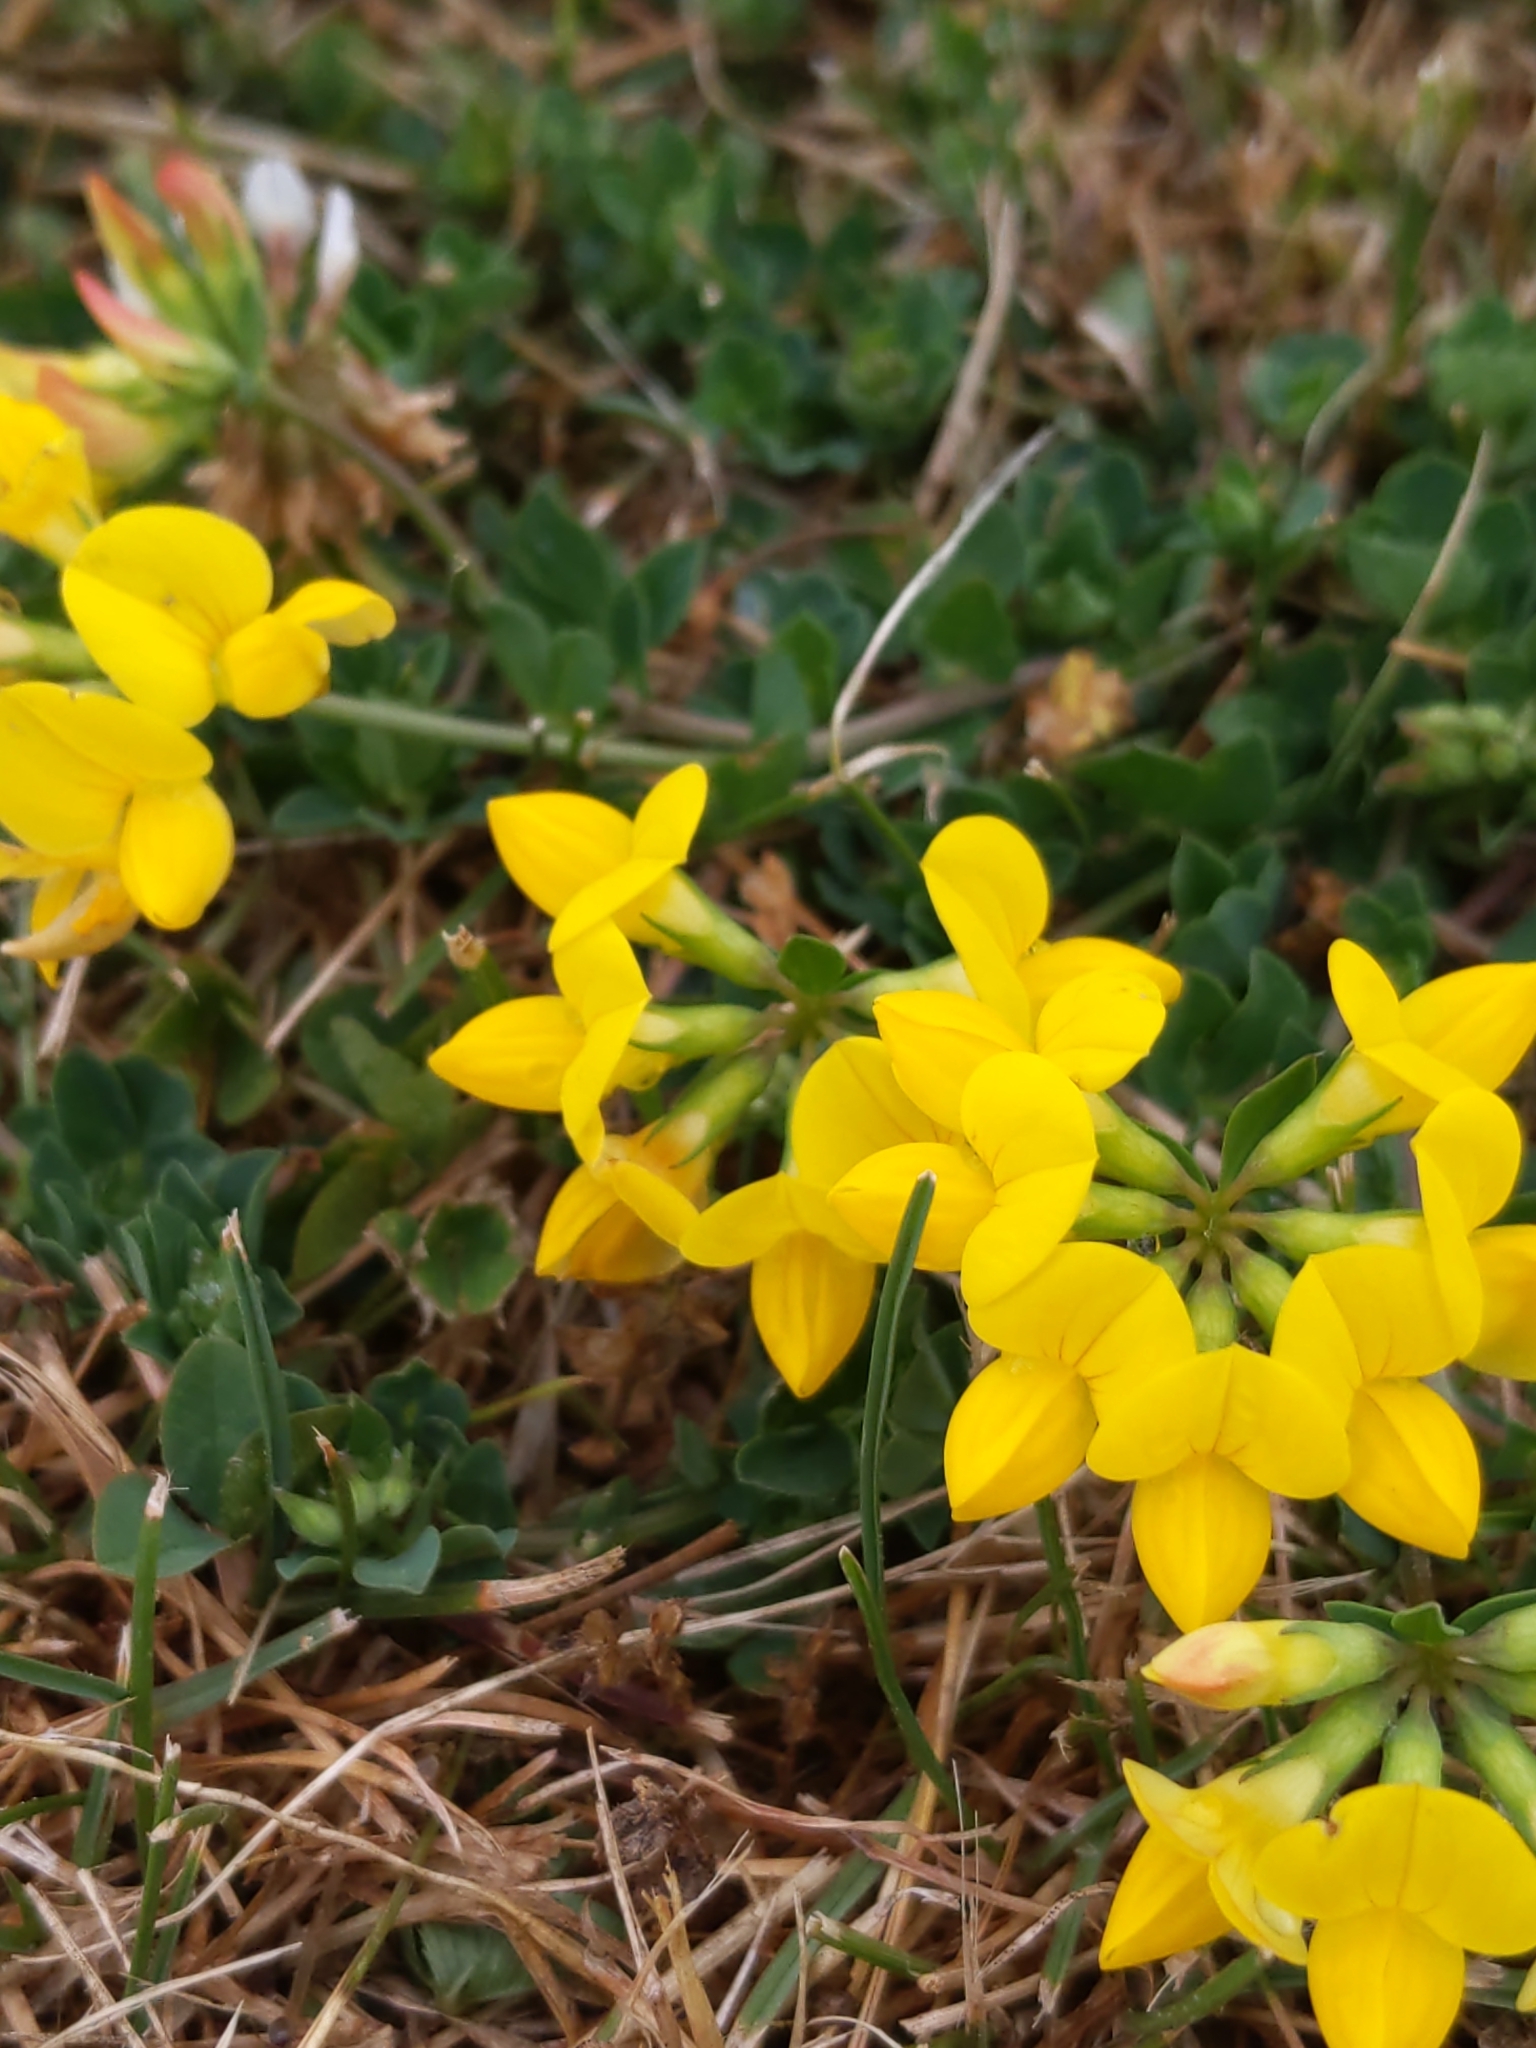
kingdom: Plantae
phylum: Tracheophyta
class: Magnoliopsida
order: Fabales
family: Fabaceae
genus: Lotus
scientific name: Lotus corniculatus
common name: Common bird's-foot-trefoil
